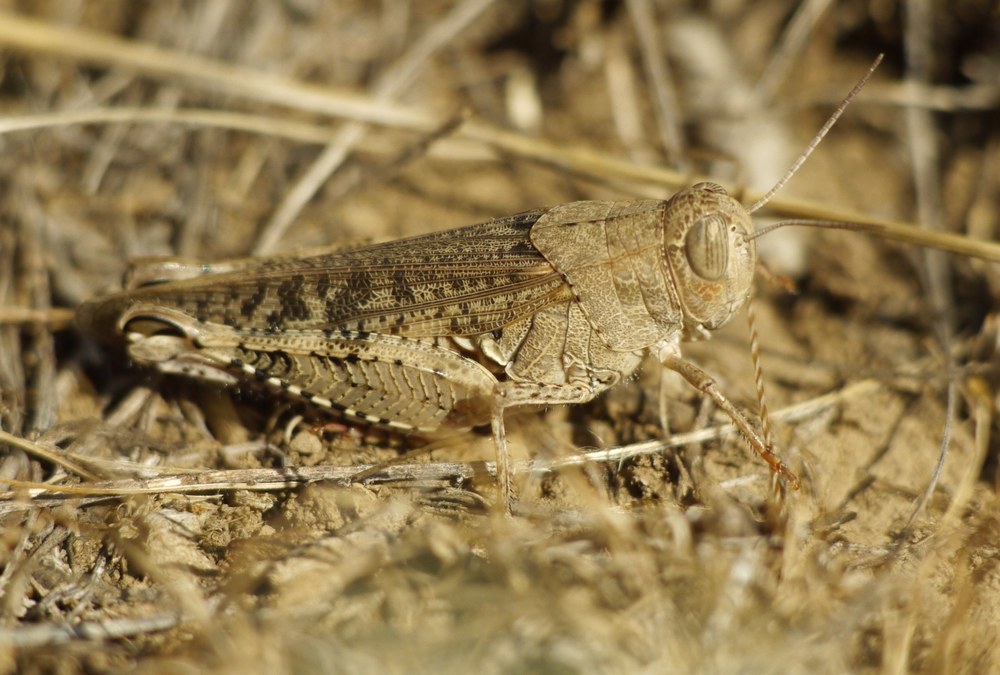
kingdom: Animalia
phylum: Arthropoda
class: Insecta
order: Orthoptera
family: Acrididae
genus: Calliptamus
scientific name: Calliptamus italicus
